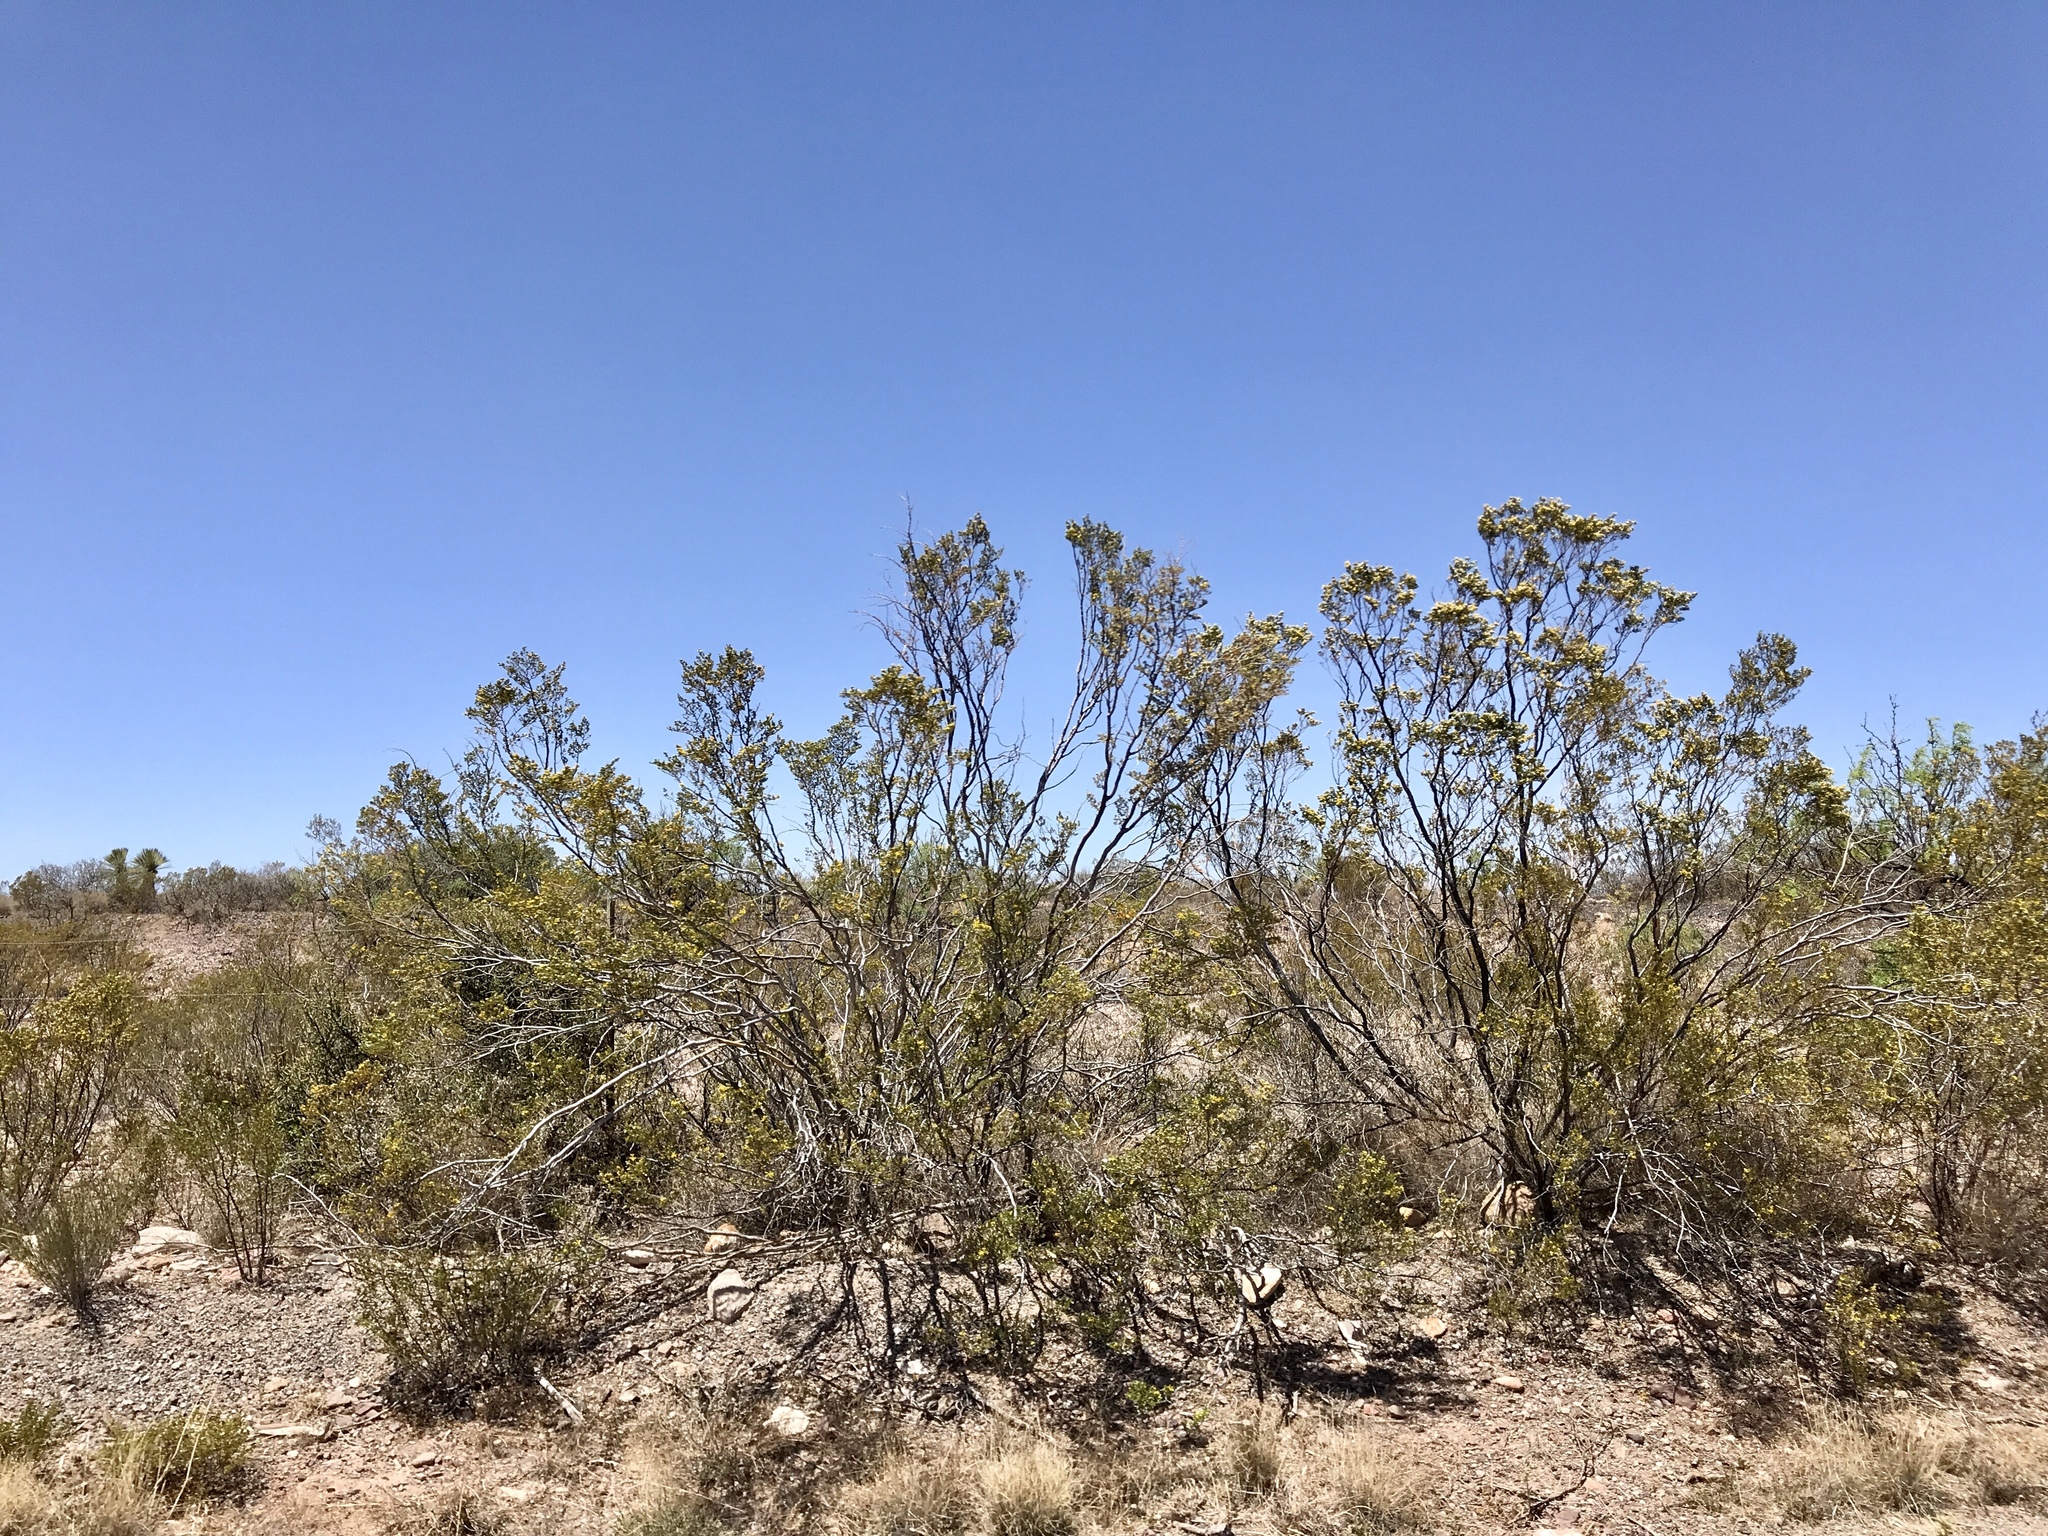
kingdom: Plantae
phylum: Tracheophyta
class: Magnoliopsida
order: Zygophyllales
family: Zygophyllaceae
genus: Larrea
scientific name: Larrea tridentata
